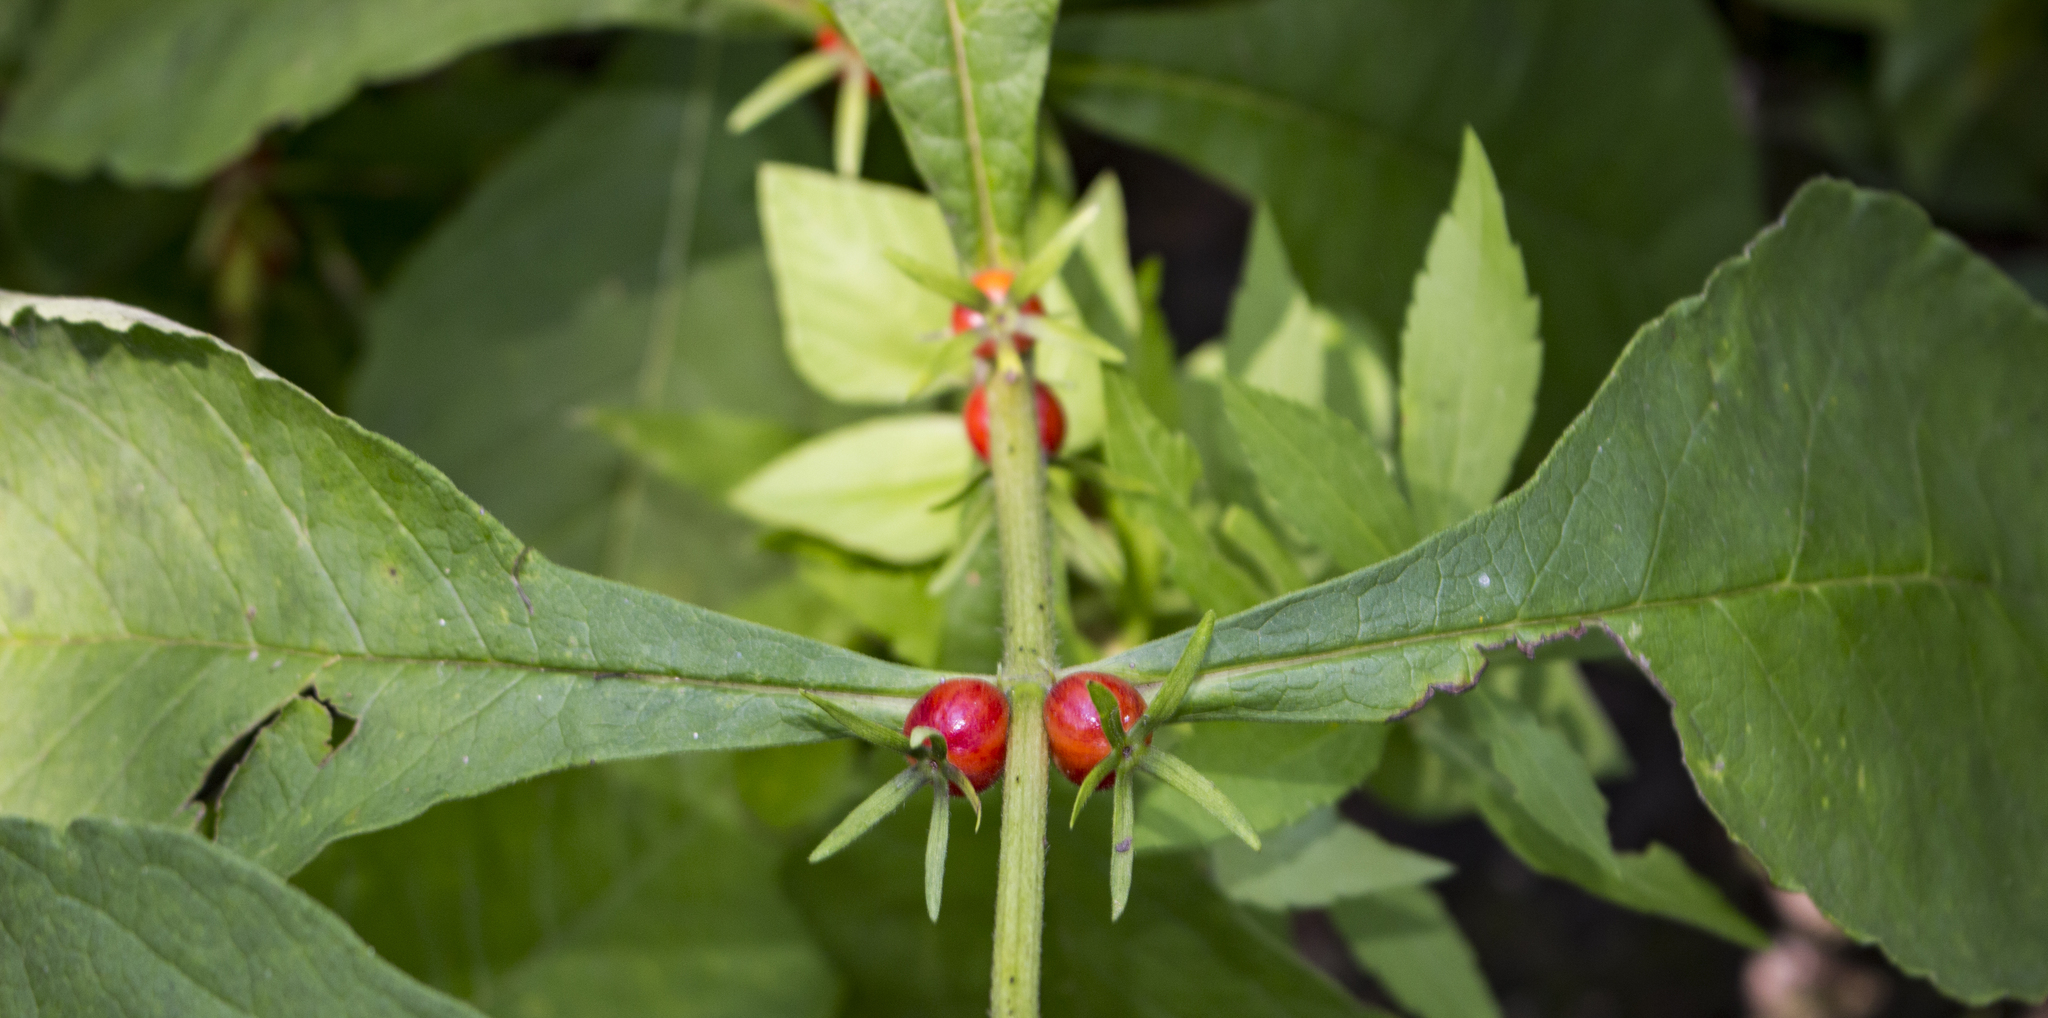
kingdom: Plantae
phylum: Tracheophyta
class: Magnoliopsida
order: Dipsacales
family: Caprifoliaceae
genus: Triosteum
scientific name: Triosteum aurantiacum
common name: Coffee tinker's-weed
